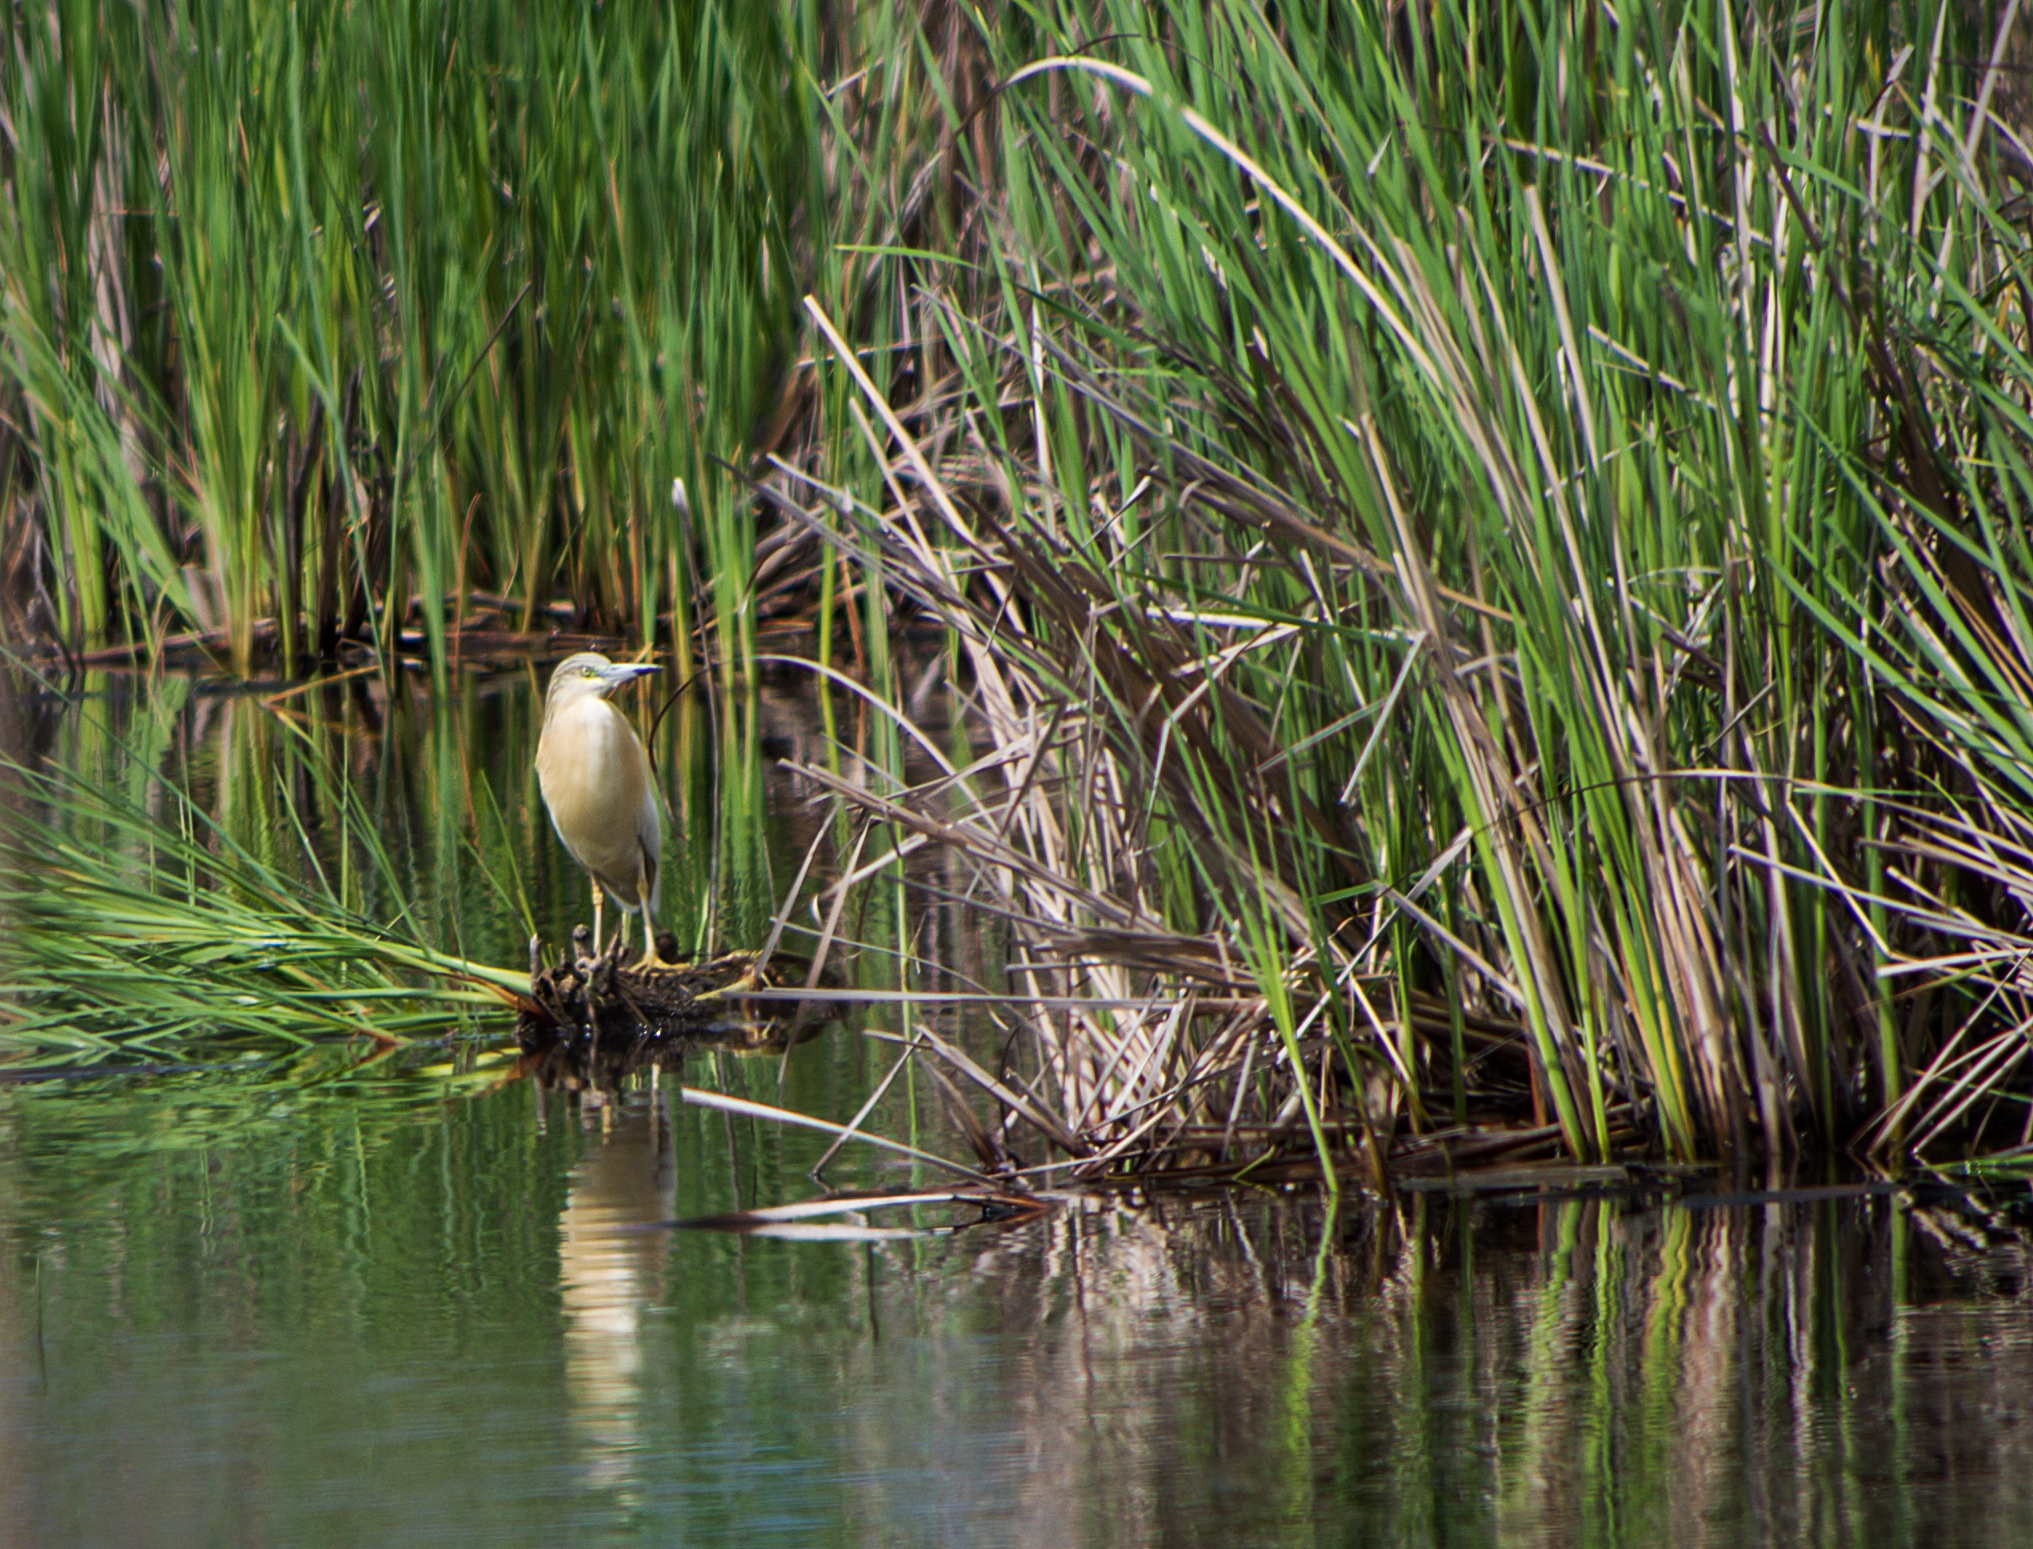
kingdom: Animalia
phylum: Chordata
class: Aves
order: Pelecaniformes
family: Ardeidae
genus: Ardeola
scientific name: Ardeola ralloides
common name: Squacco heron
